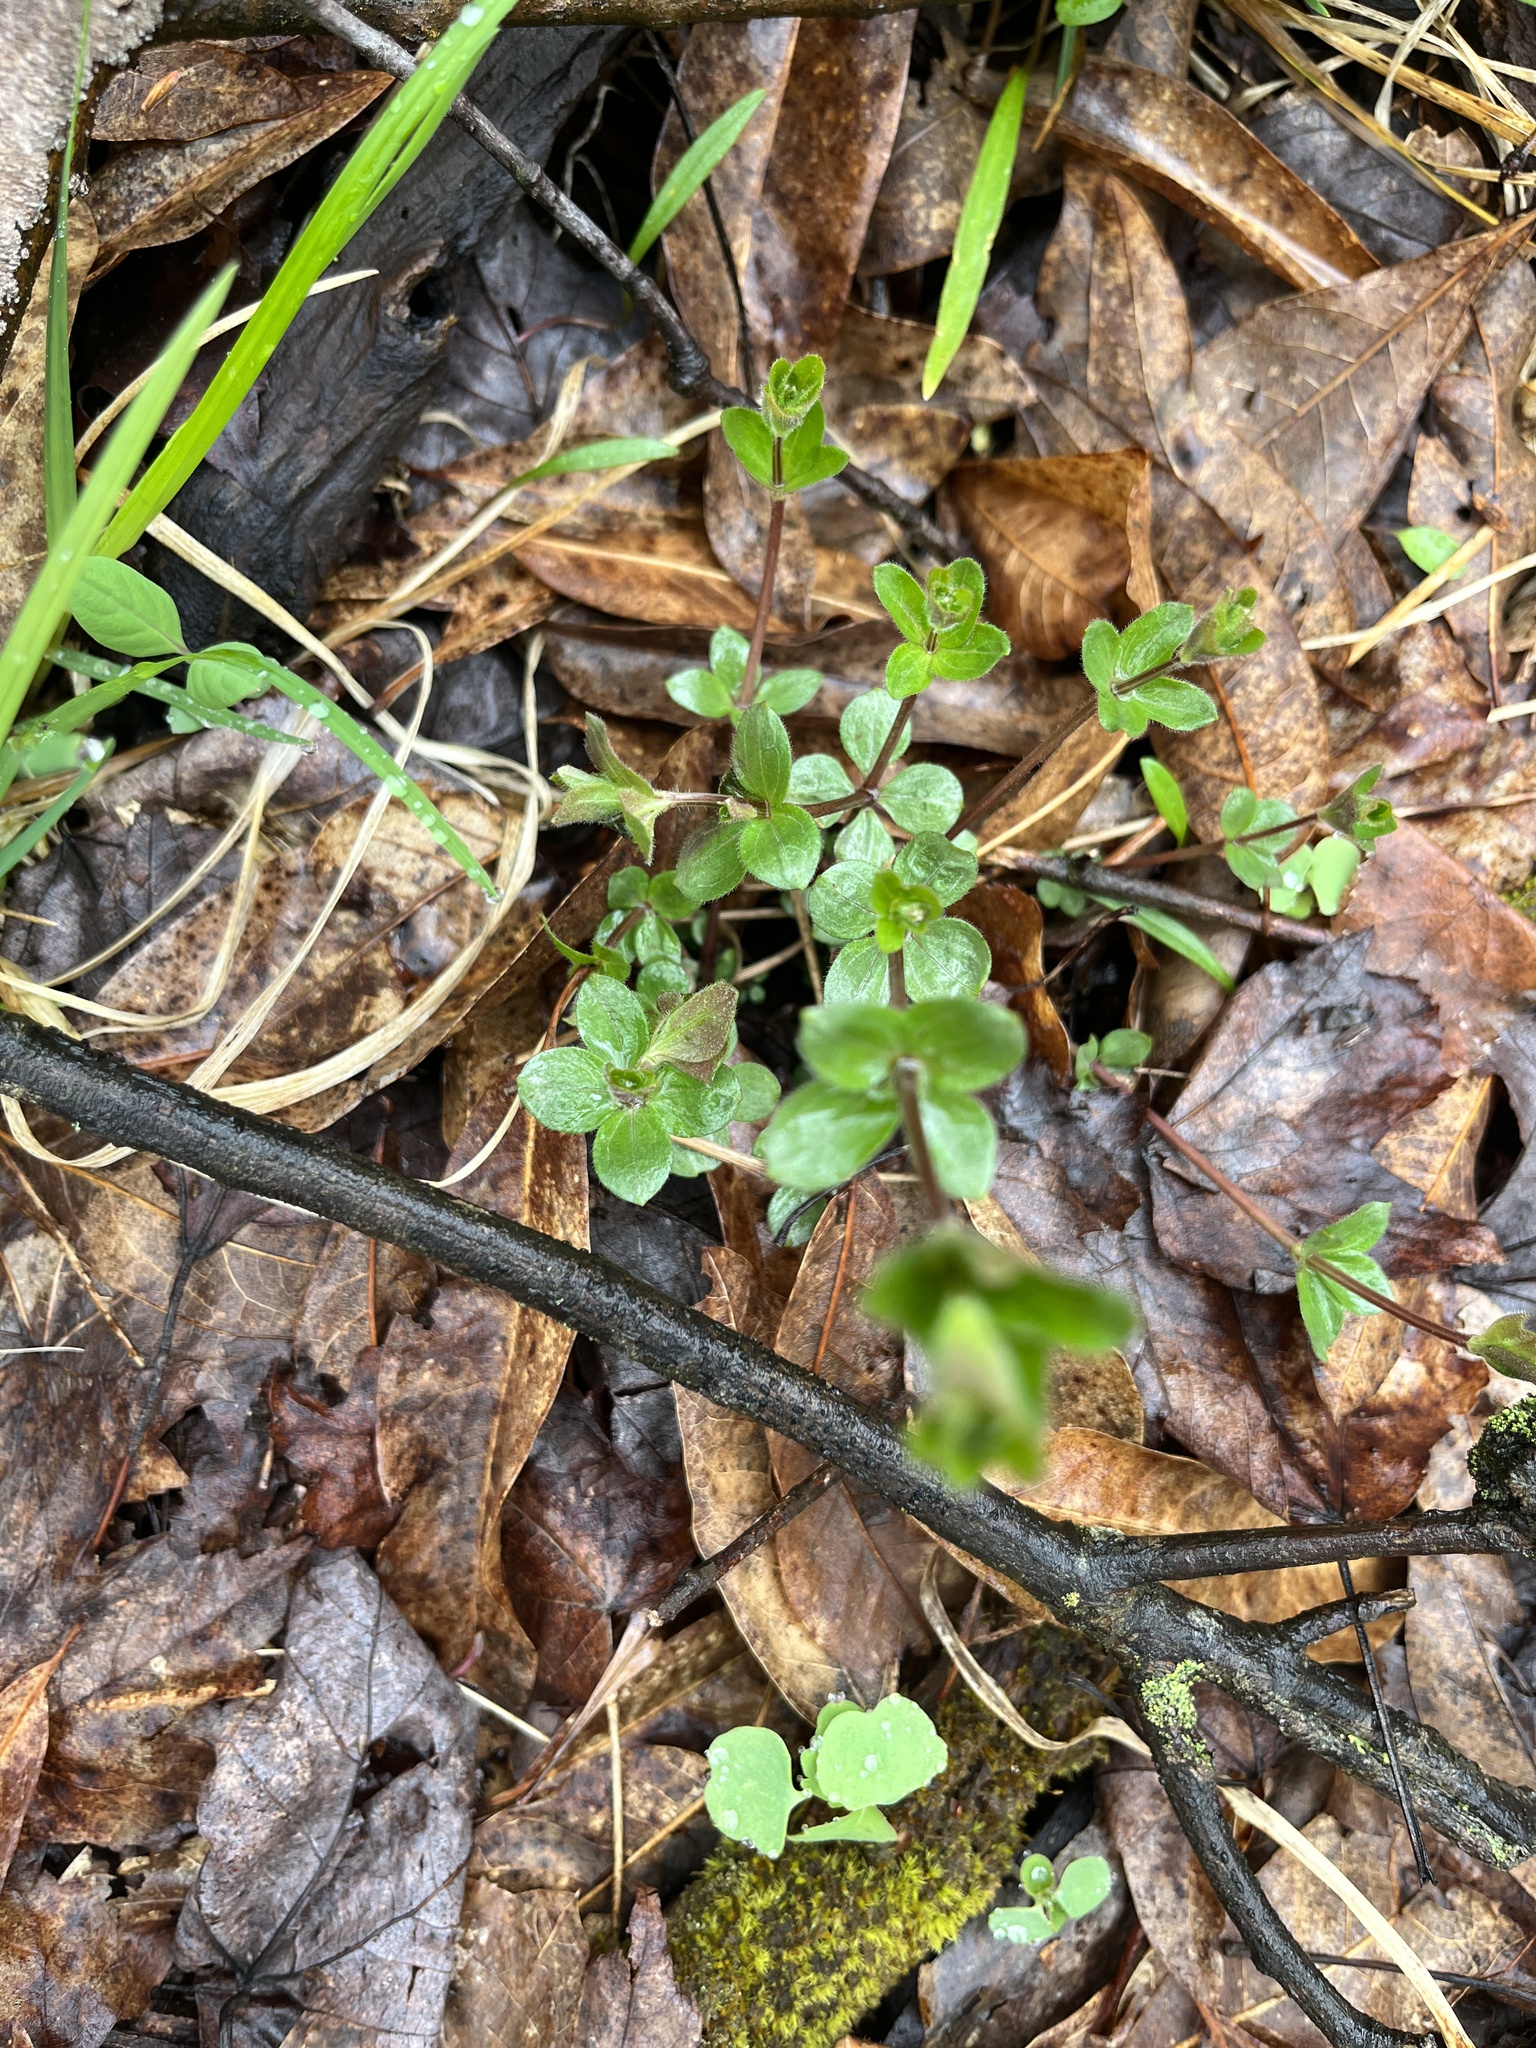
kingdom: Plantae
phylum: Tracheophyta
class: Magnoliopsida
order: Gentianales
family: Rubiaceae
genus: Galium
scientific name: Galium circaezans
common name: Forest bedstraw
